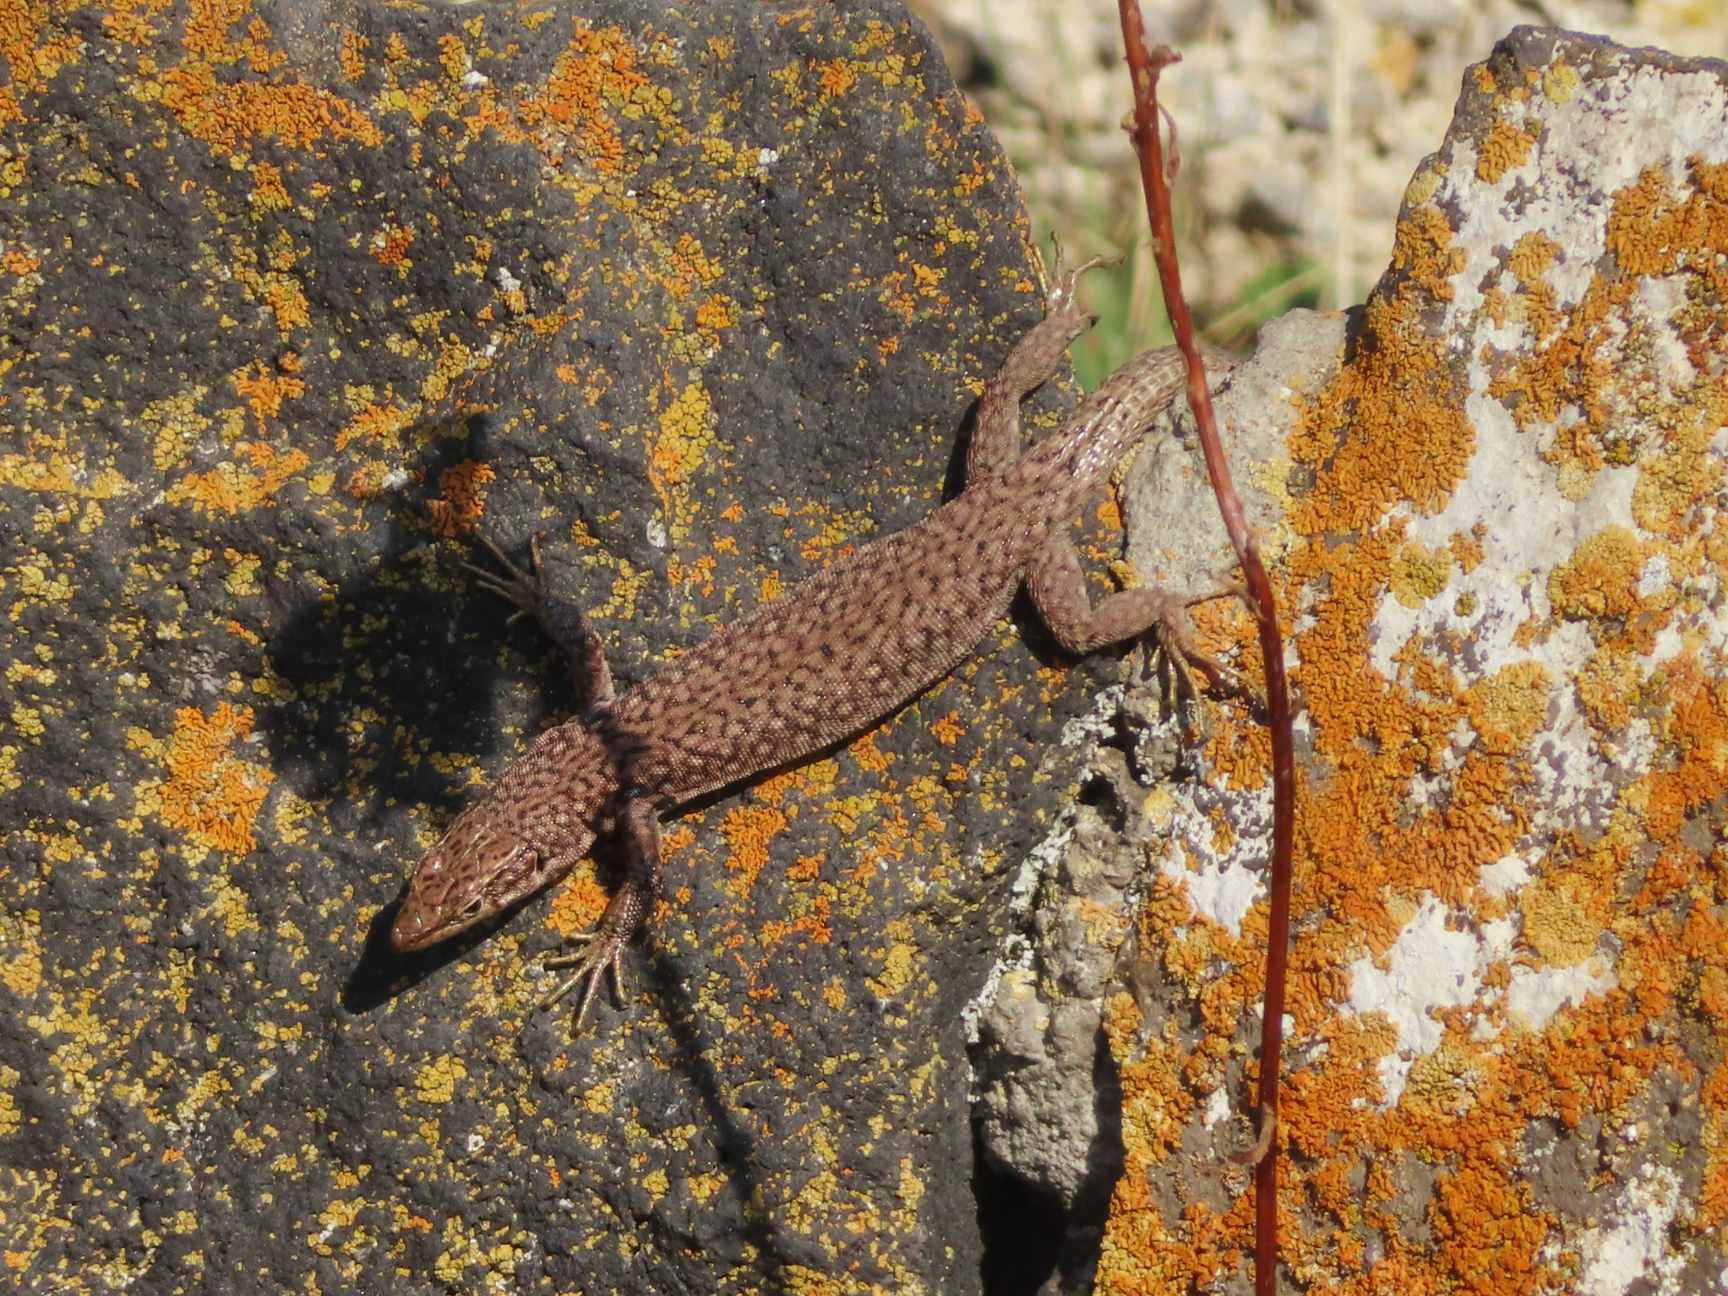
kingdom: Animalia
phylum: Chordata
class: Squamata
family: Lacertidae
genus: Darevskia
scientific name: Darevskia unisexualis
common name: Unisexual lizard
